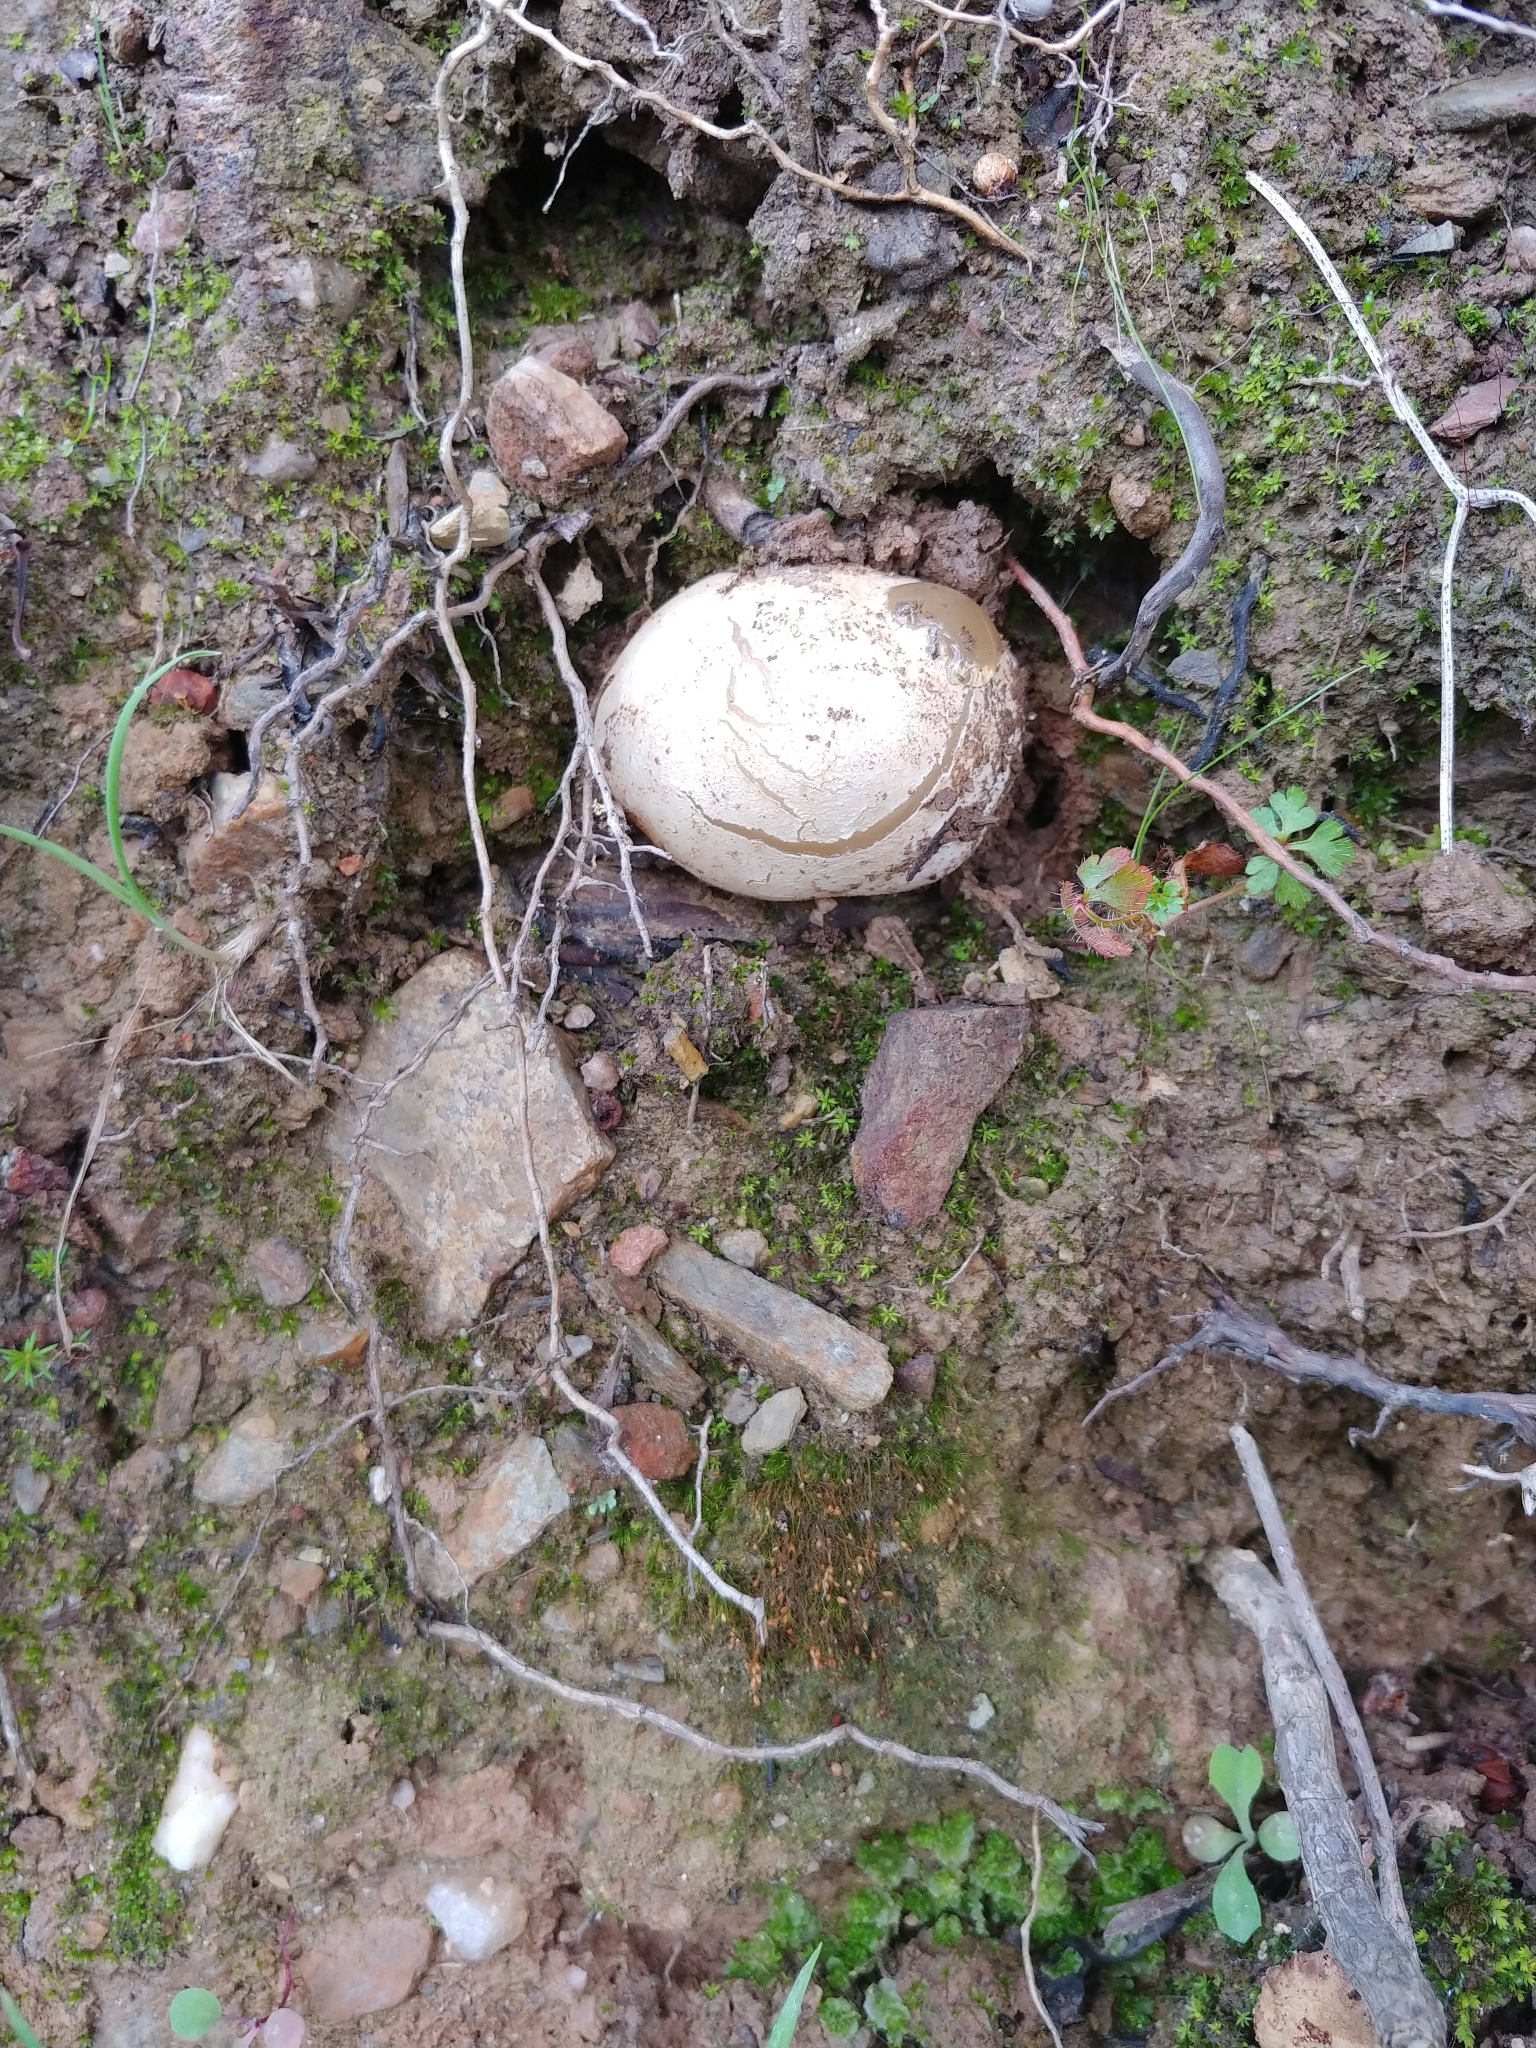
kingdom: Fungi
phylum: Basidiomycota
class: Agaricomycetes
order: Phallales
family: Phallaceae
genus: Phallus
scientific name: Phallus impudicus
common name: Common stinkhorn
